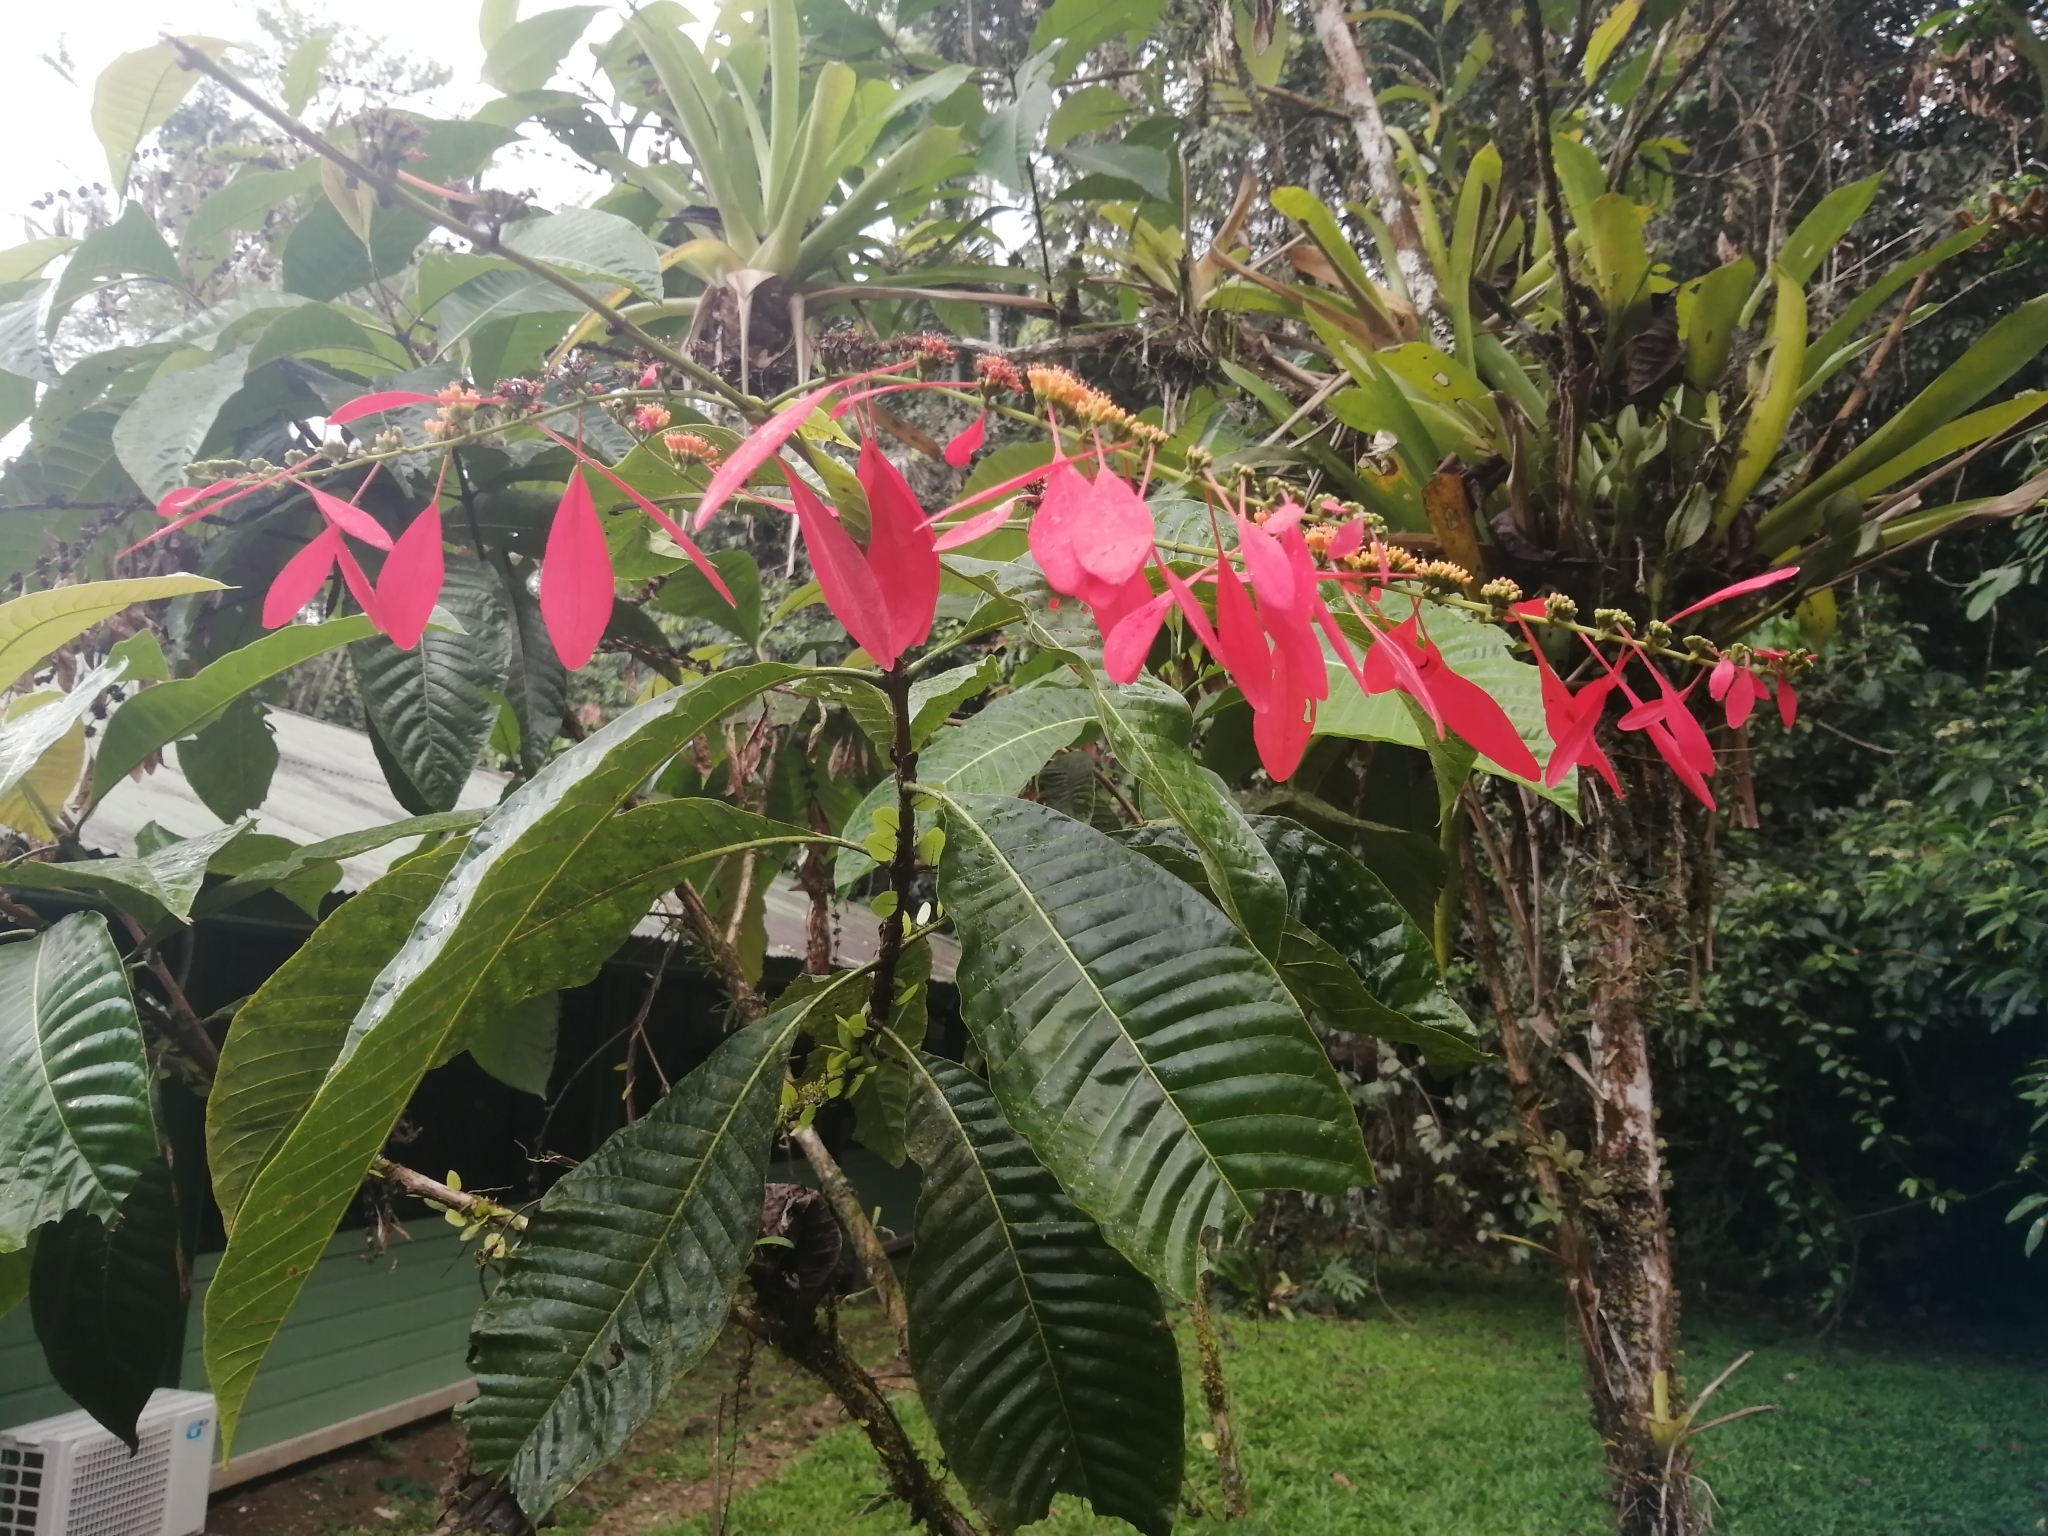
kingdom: Plantae
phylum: Tracheophyta
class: Magnoliopsida
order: Gentianales
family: Rubiaceae
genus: Warszewiczia
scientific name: Warszewiczia coccinea
